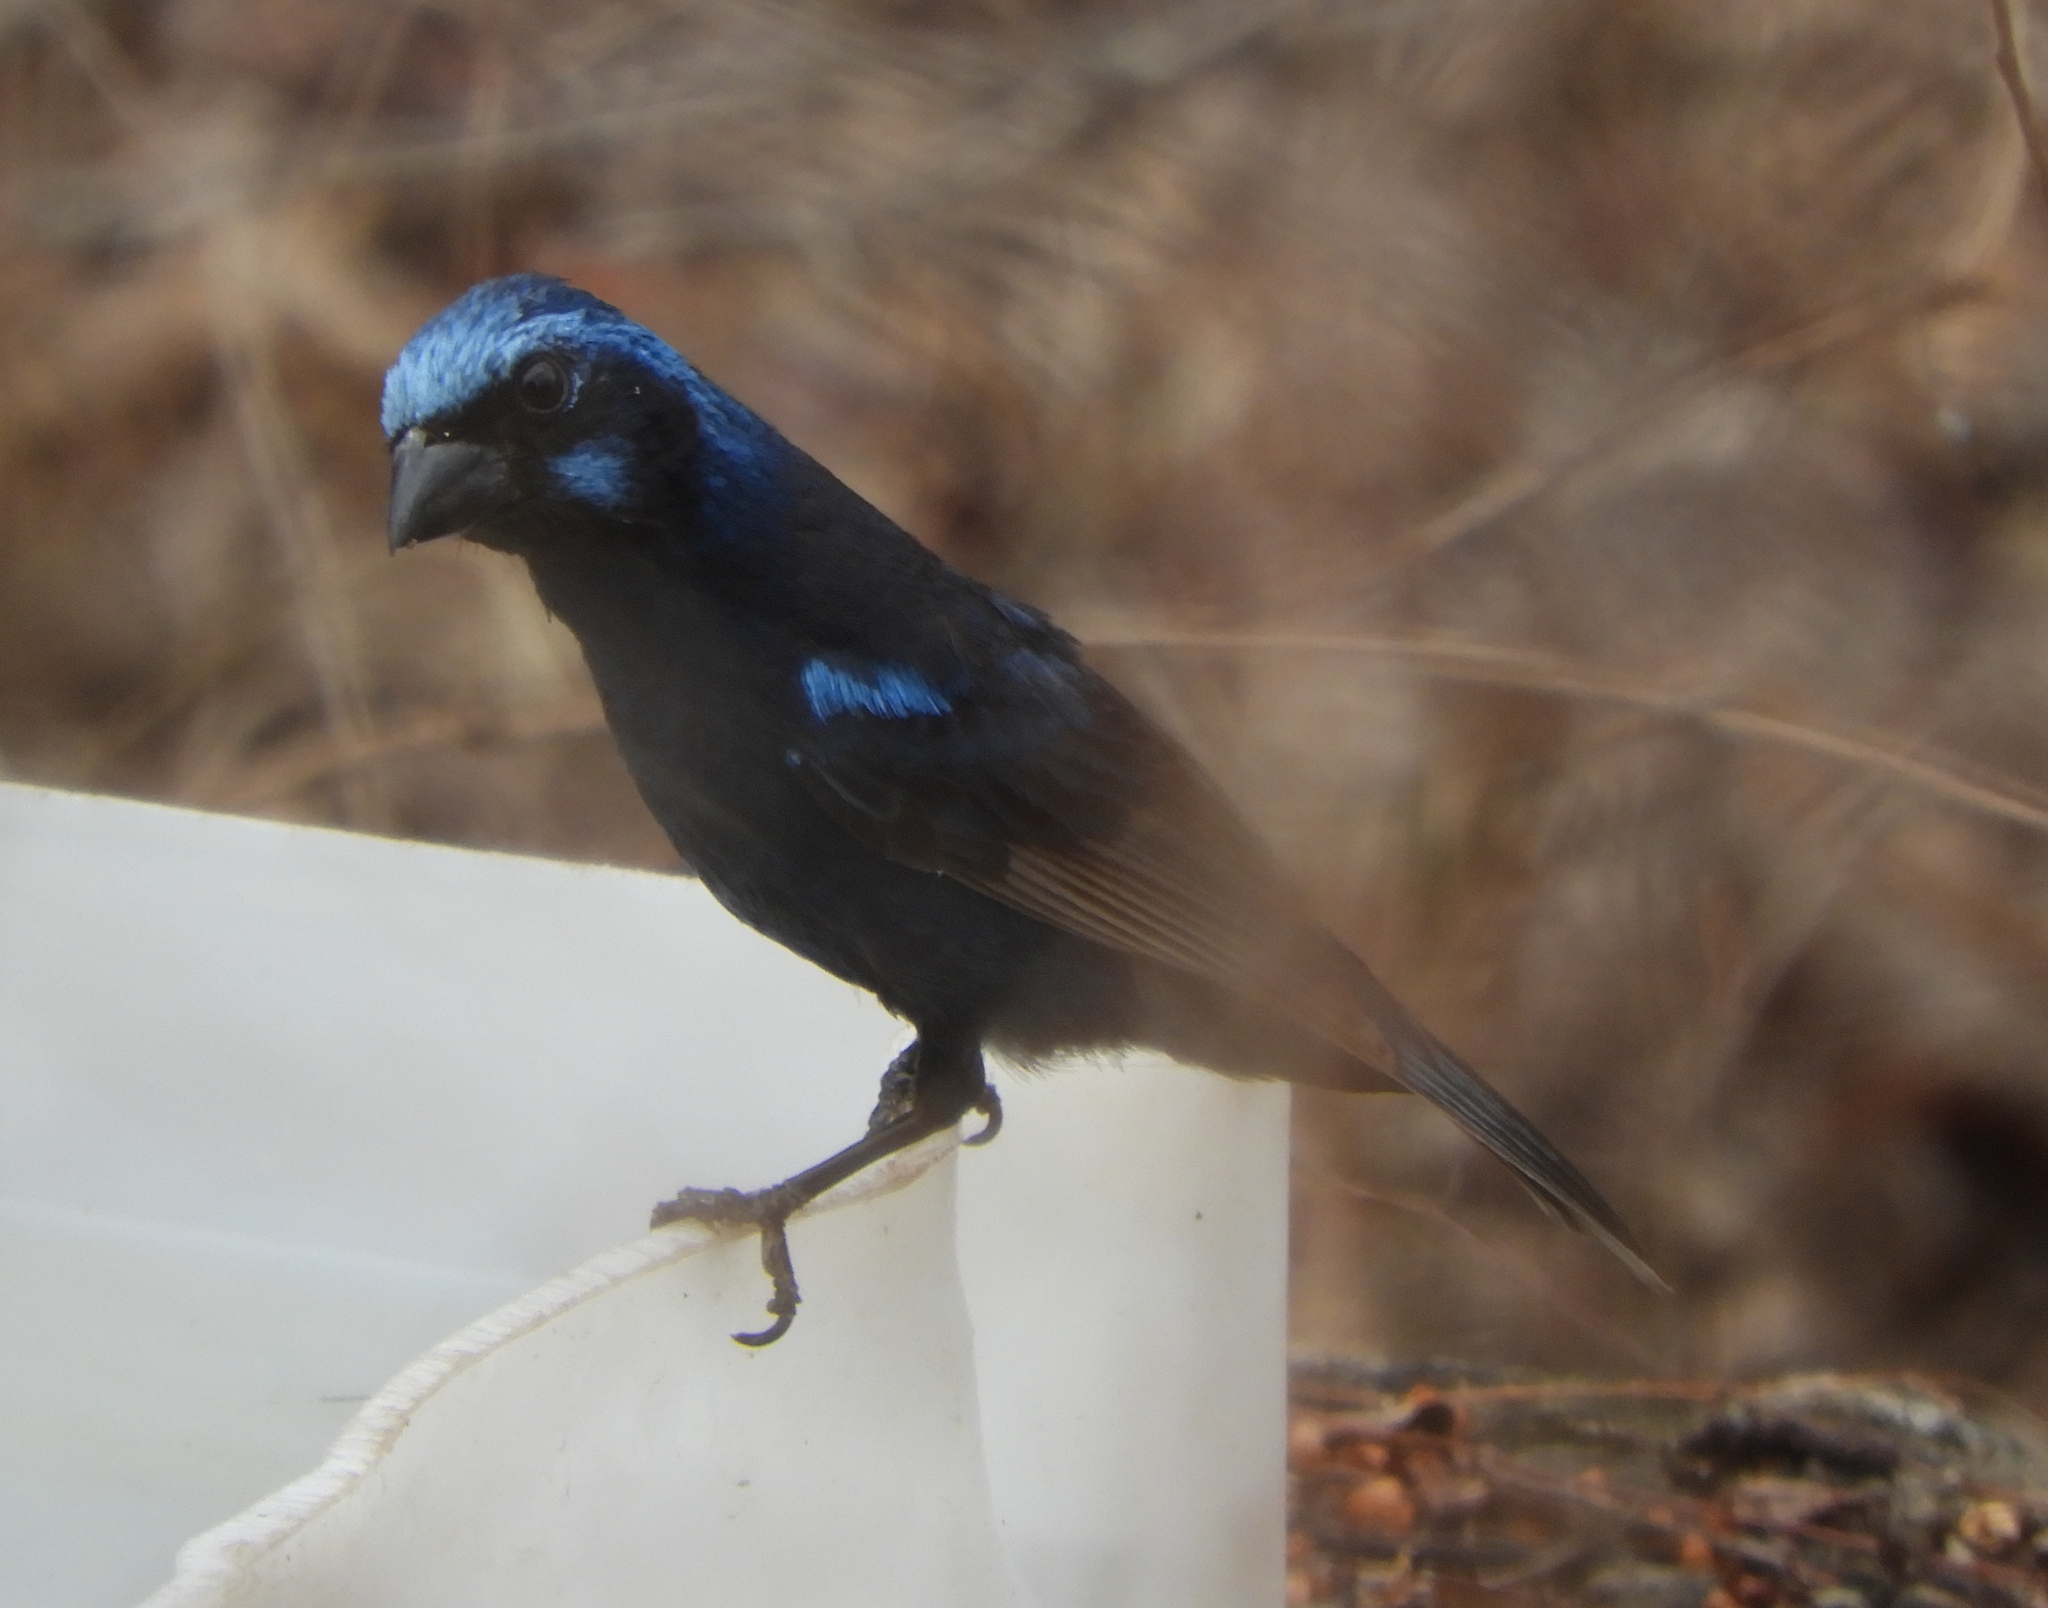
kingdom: Animalia
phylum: Chordata
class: Aves
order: Passeriformes
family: Cardinalidae
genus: Cyanocompsa
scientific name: Cyanocompsa parellina
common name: Blue bunting
